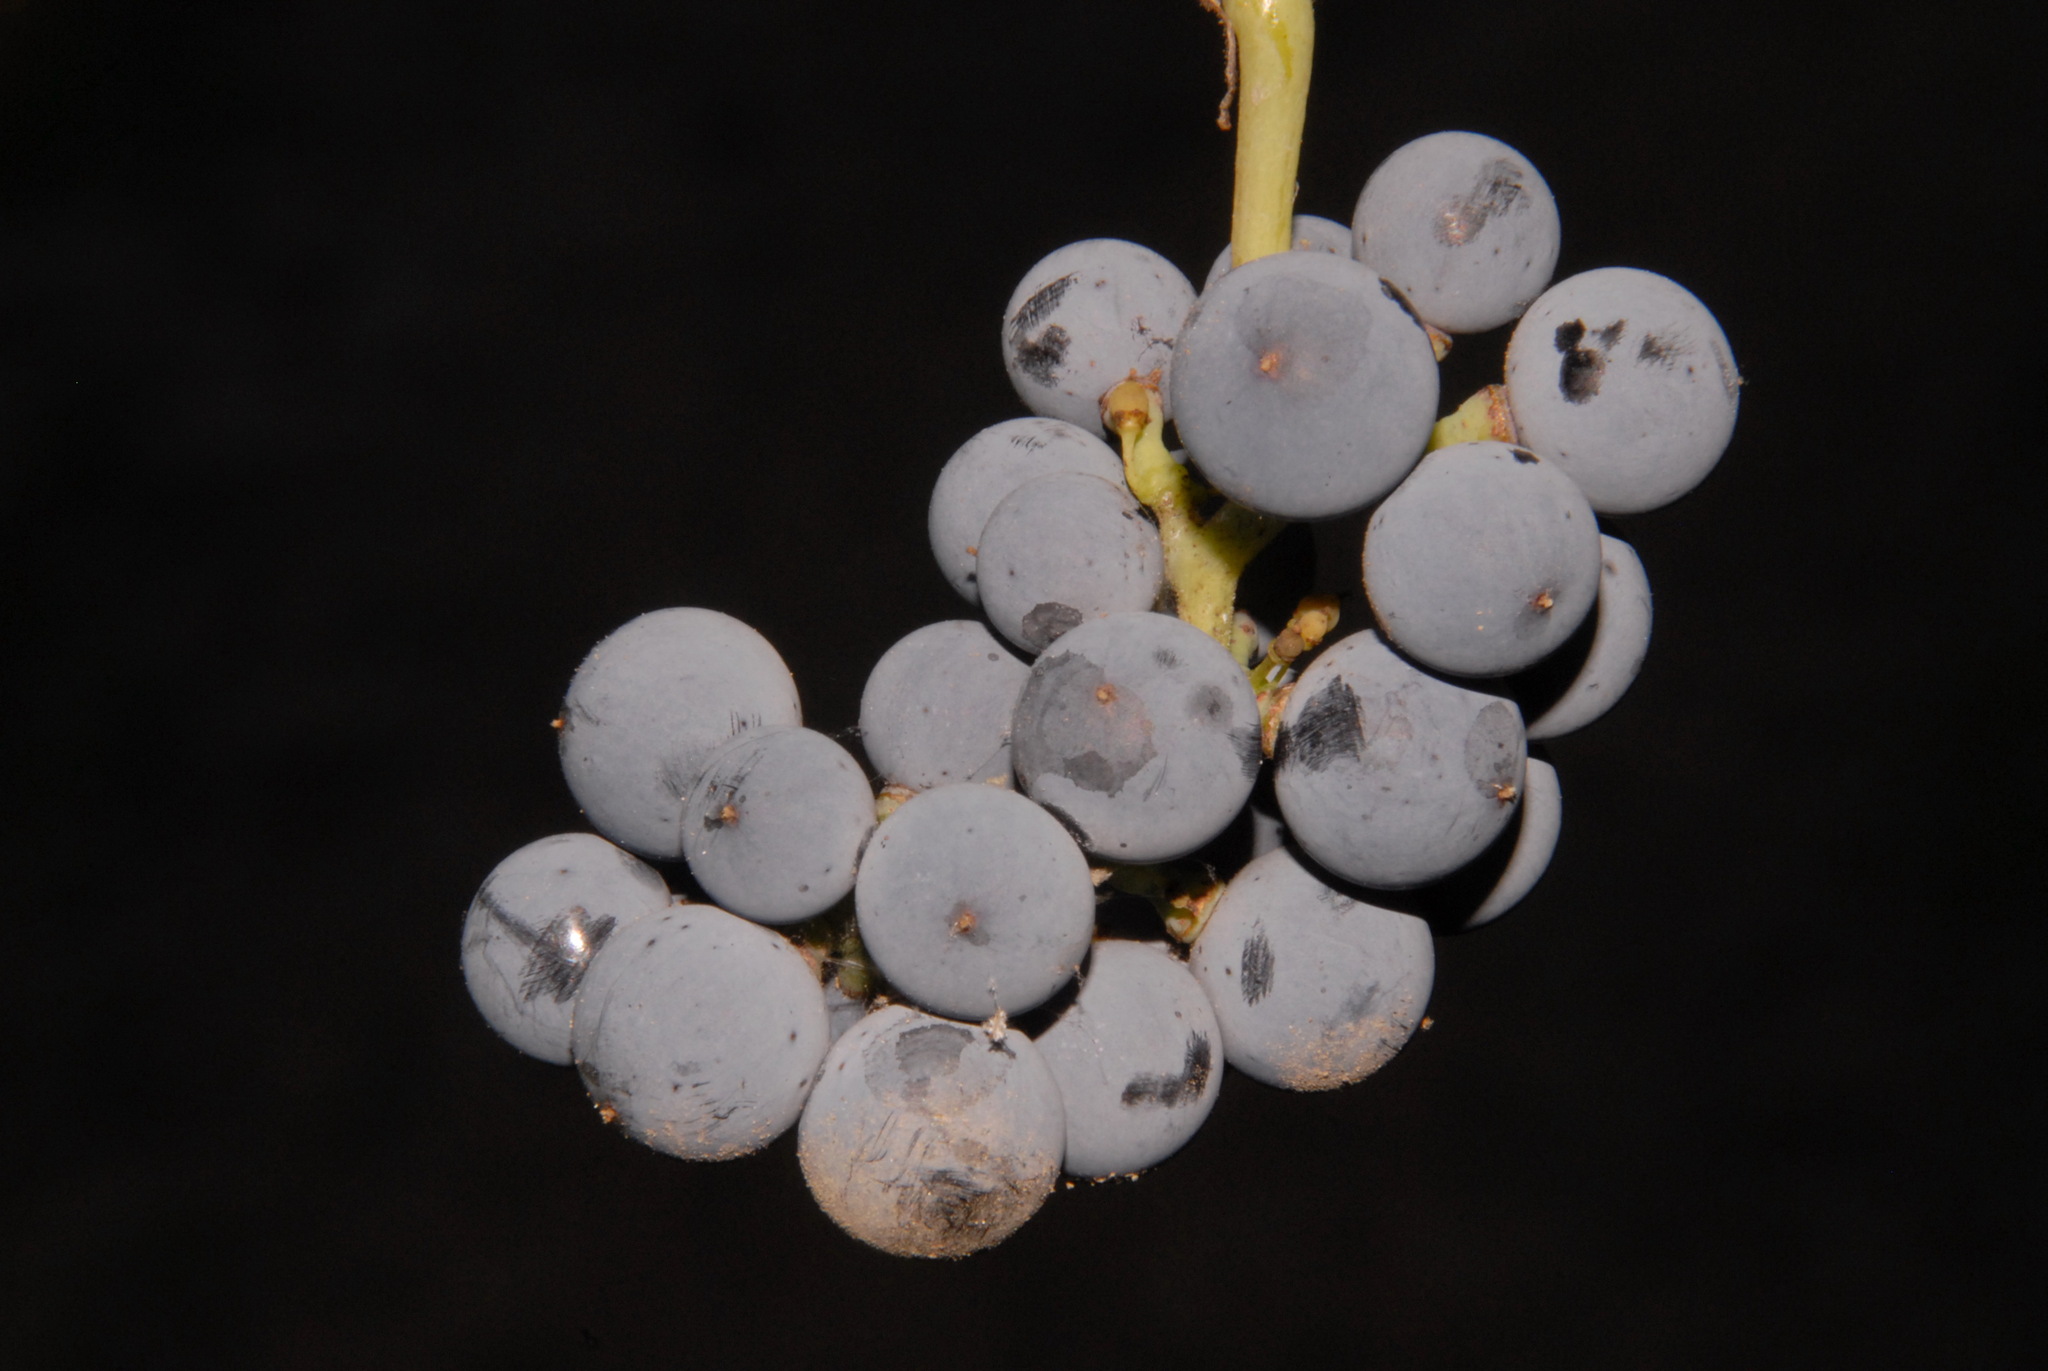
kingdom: Plantae
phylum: Tracheophyta
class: Magnoliopsida
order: Vitales
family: Vitaceae
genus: Vitis
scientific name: Vitis riparia
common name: Frost grape
